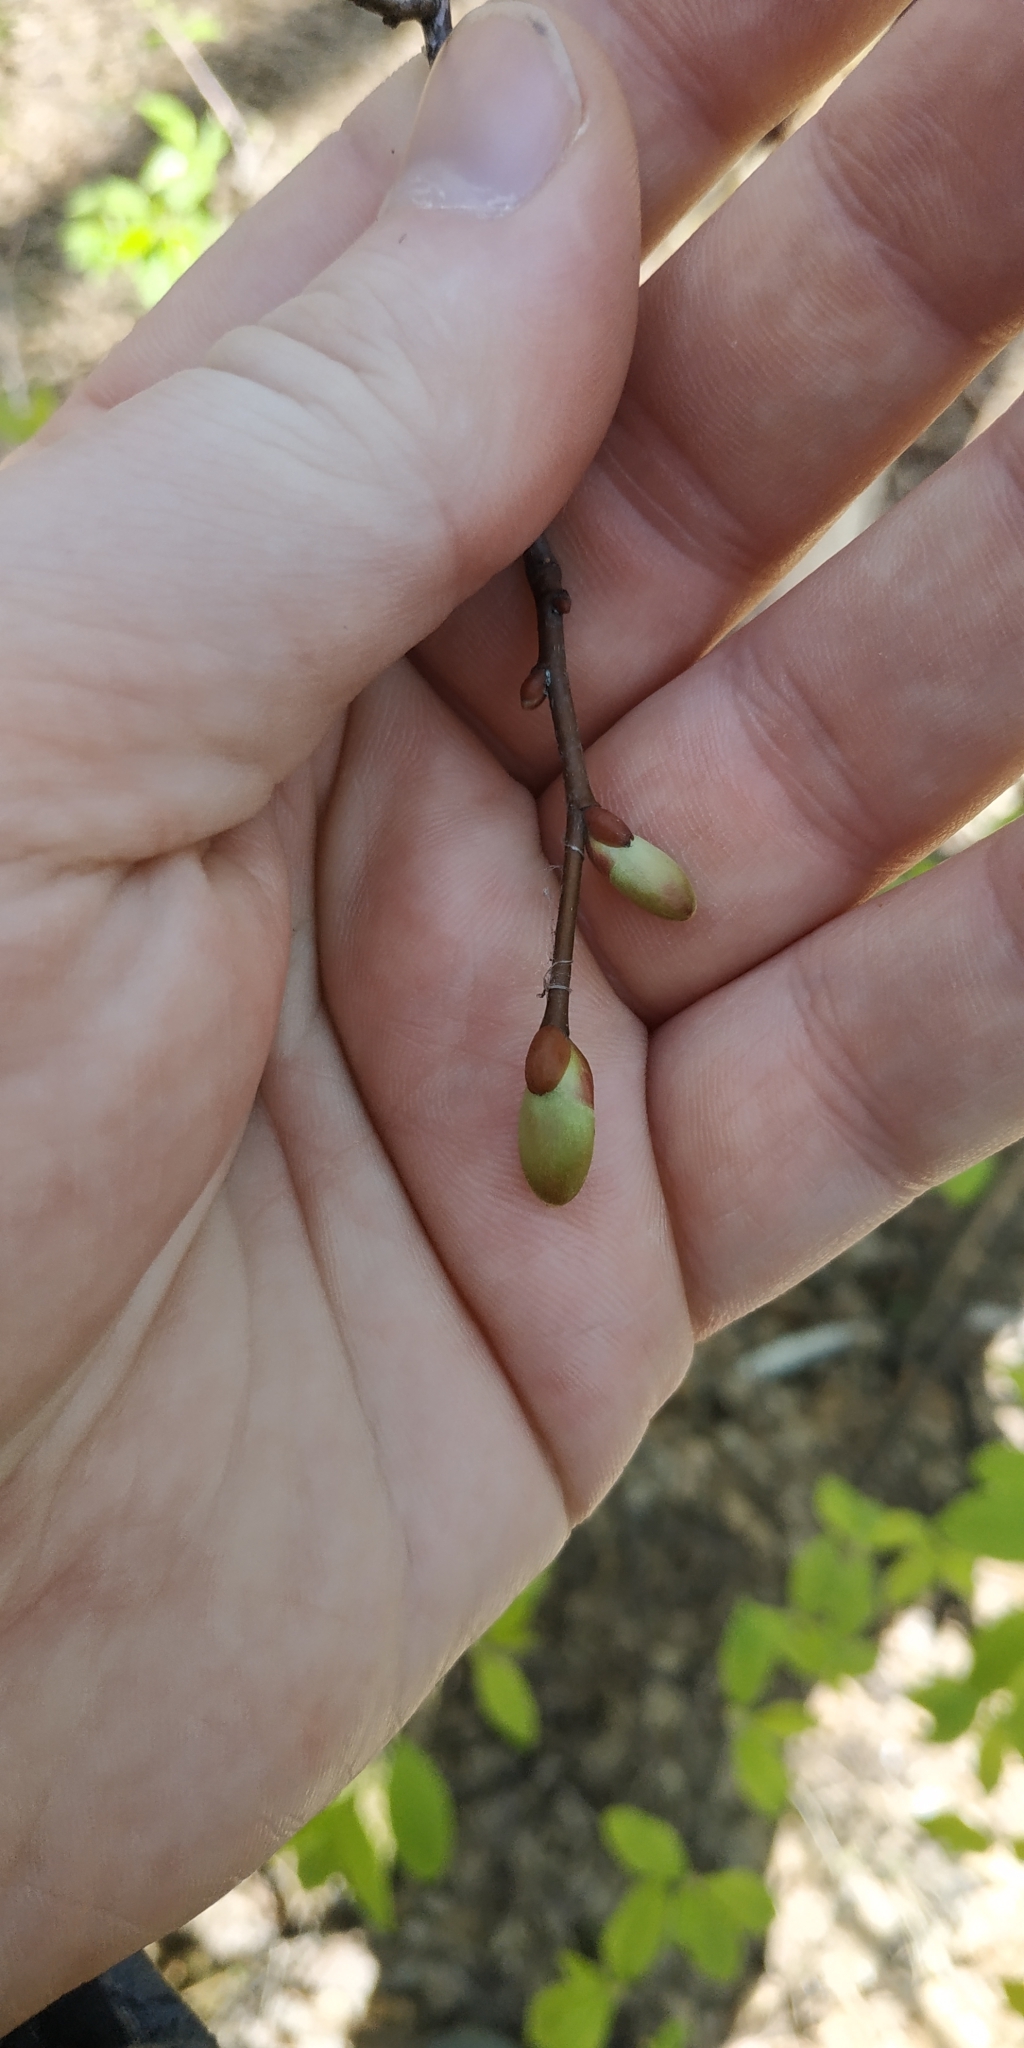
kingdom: Plantae
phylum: Tracheophyta
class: Magnoliopsida
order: Malvales
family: Malvaceae
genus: Tilia
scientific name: Tilia cordata
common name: Small-leaved lime
